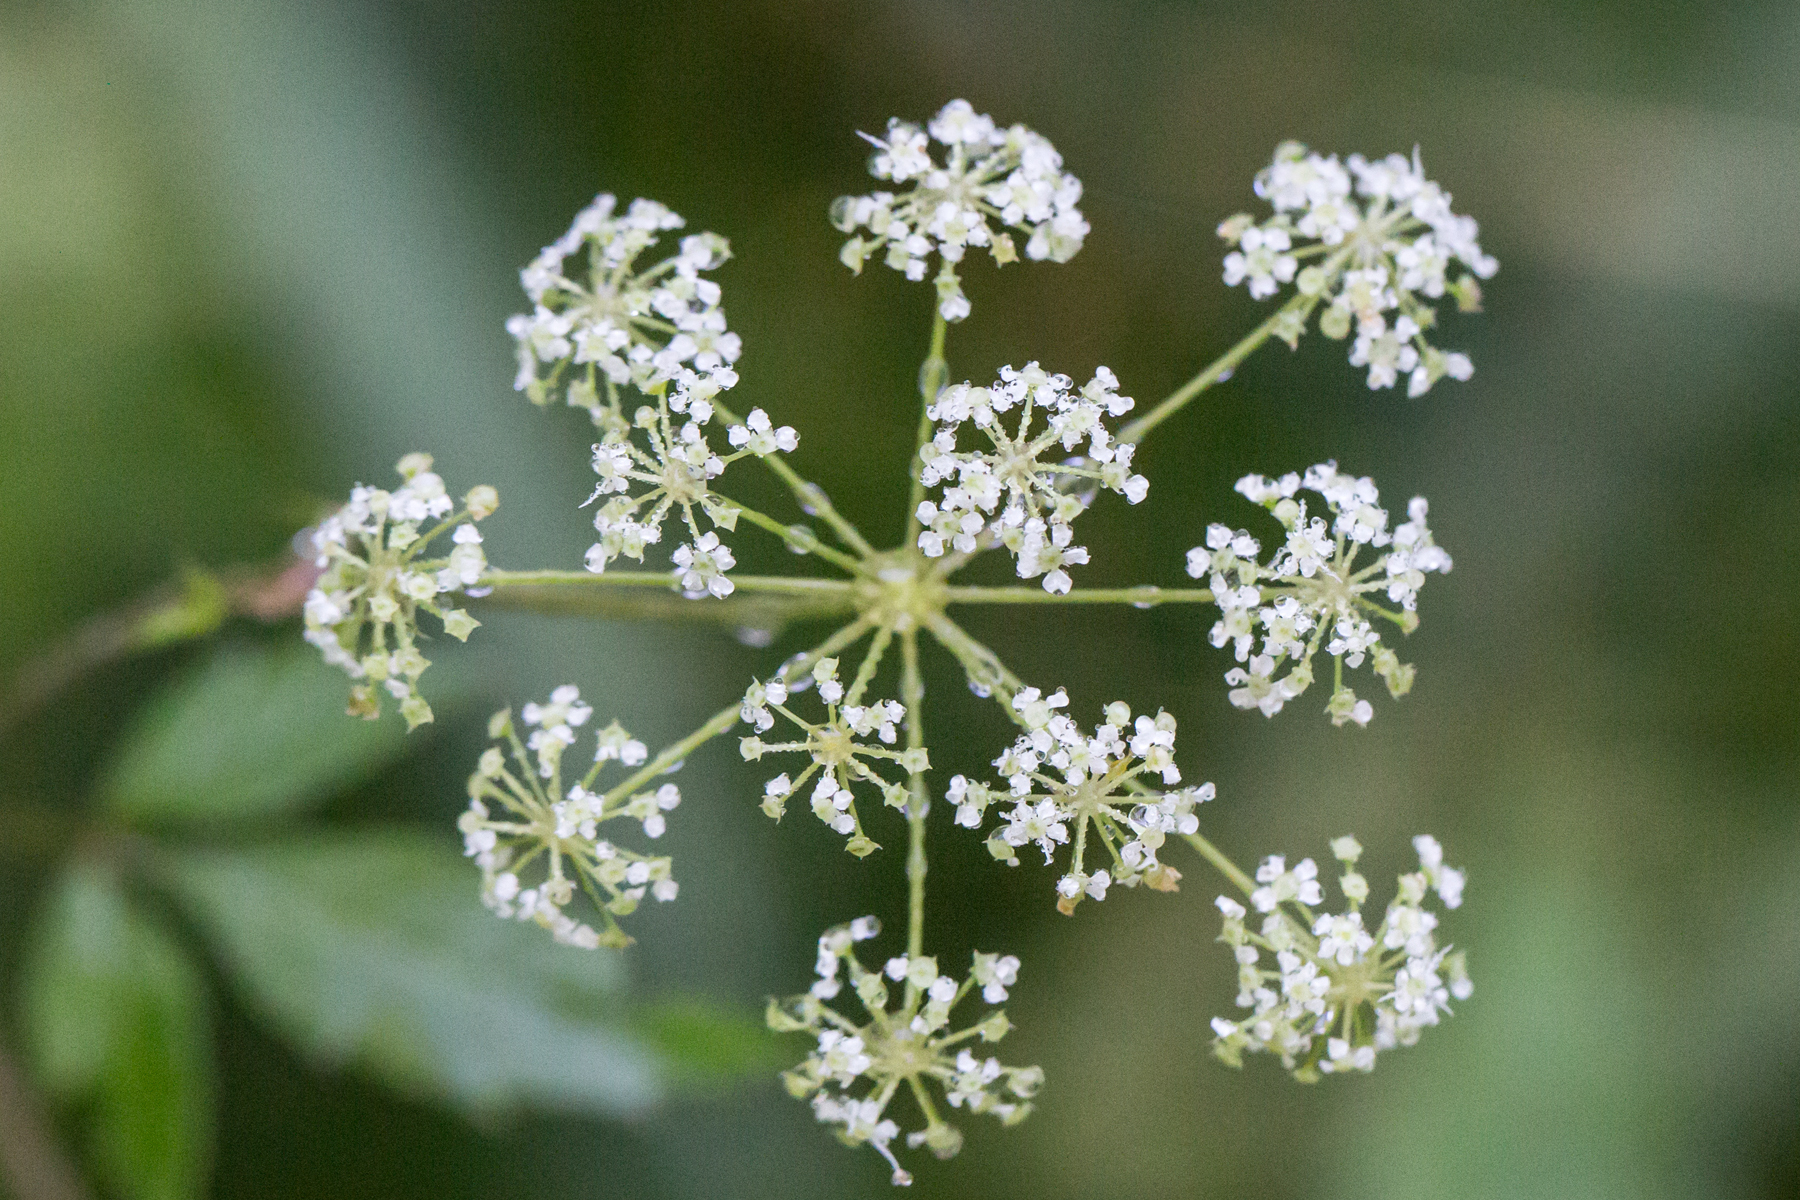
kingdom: Plantae
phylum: Tracheophyta
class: Magnoliopsida
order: Apiales
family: Apiaceae
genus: Cicuta
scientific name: Cicuta maculata
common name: Spotted cowbane
